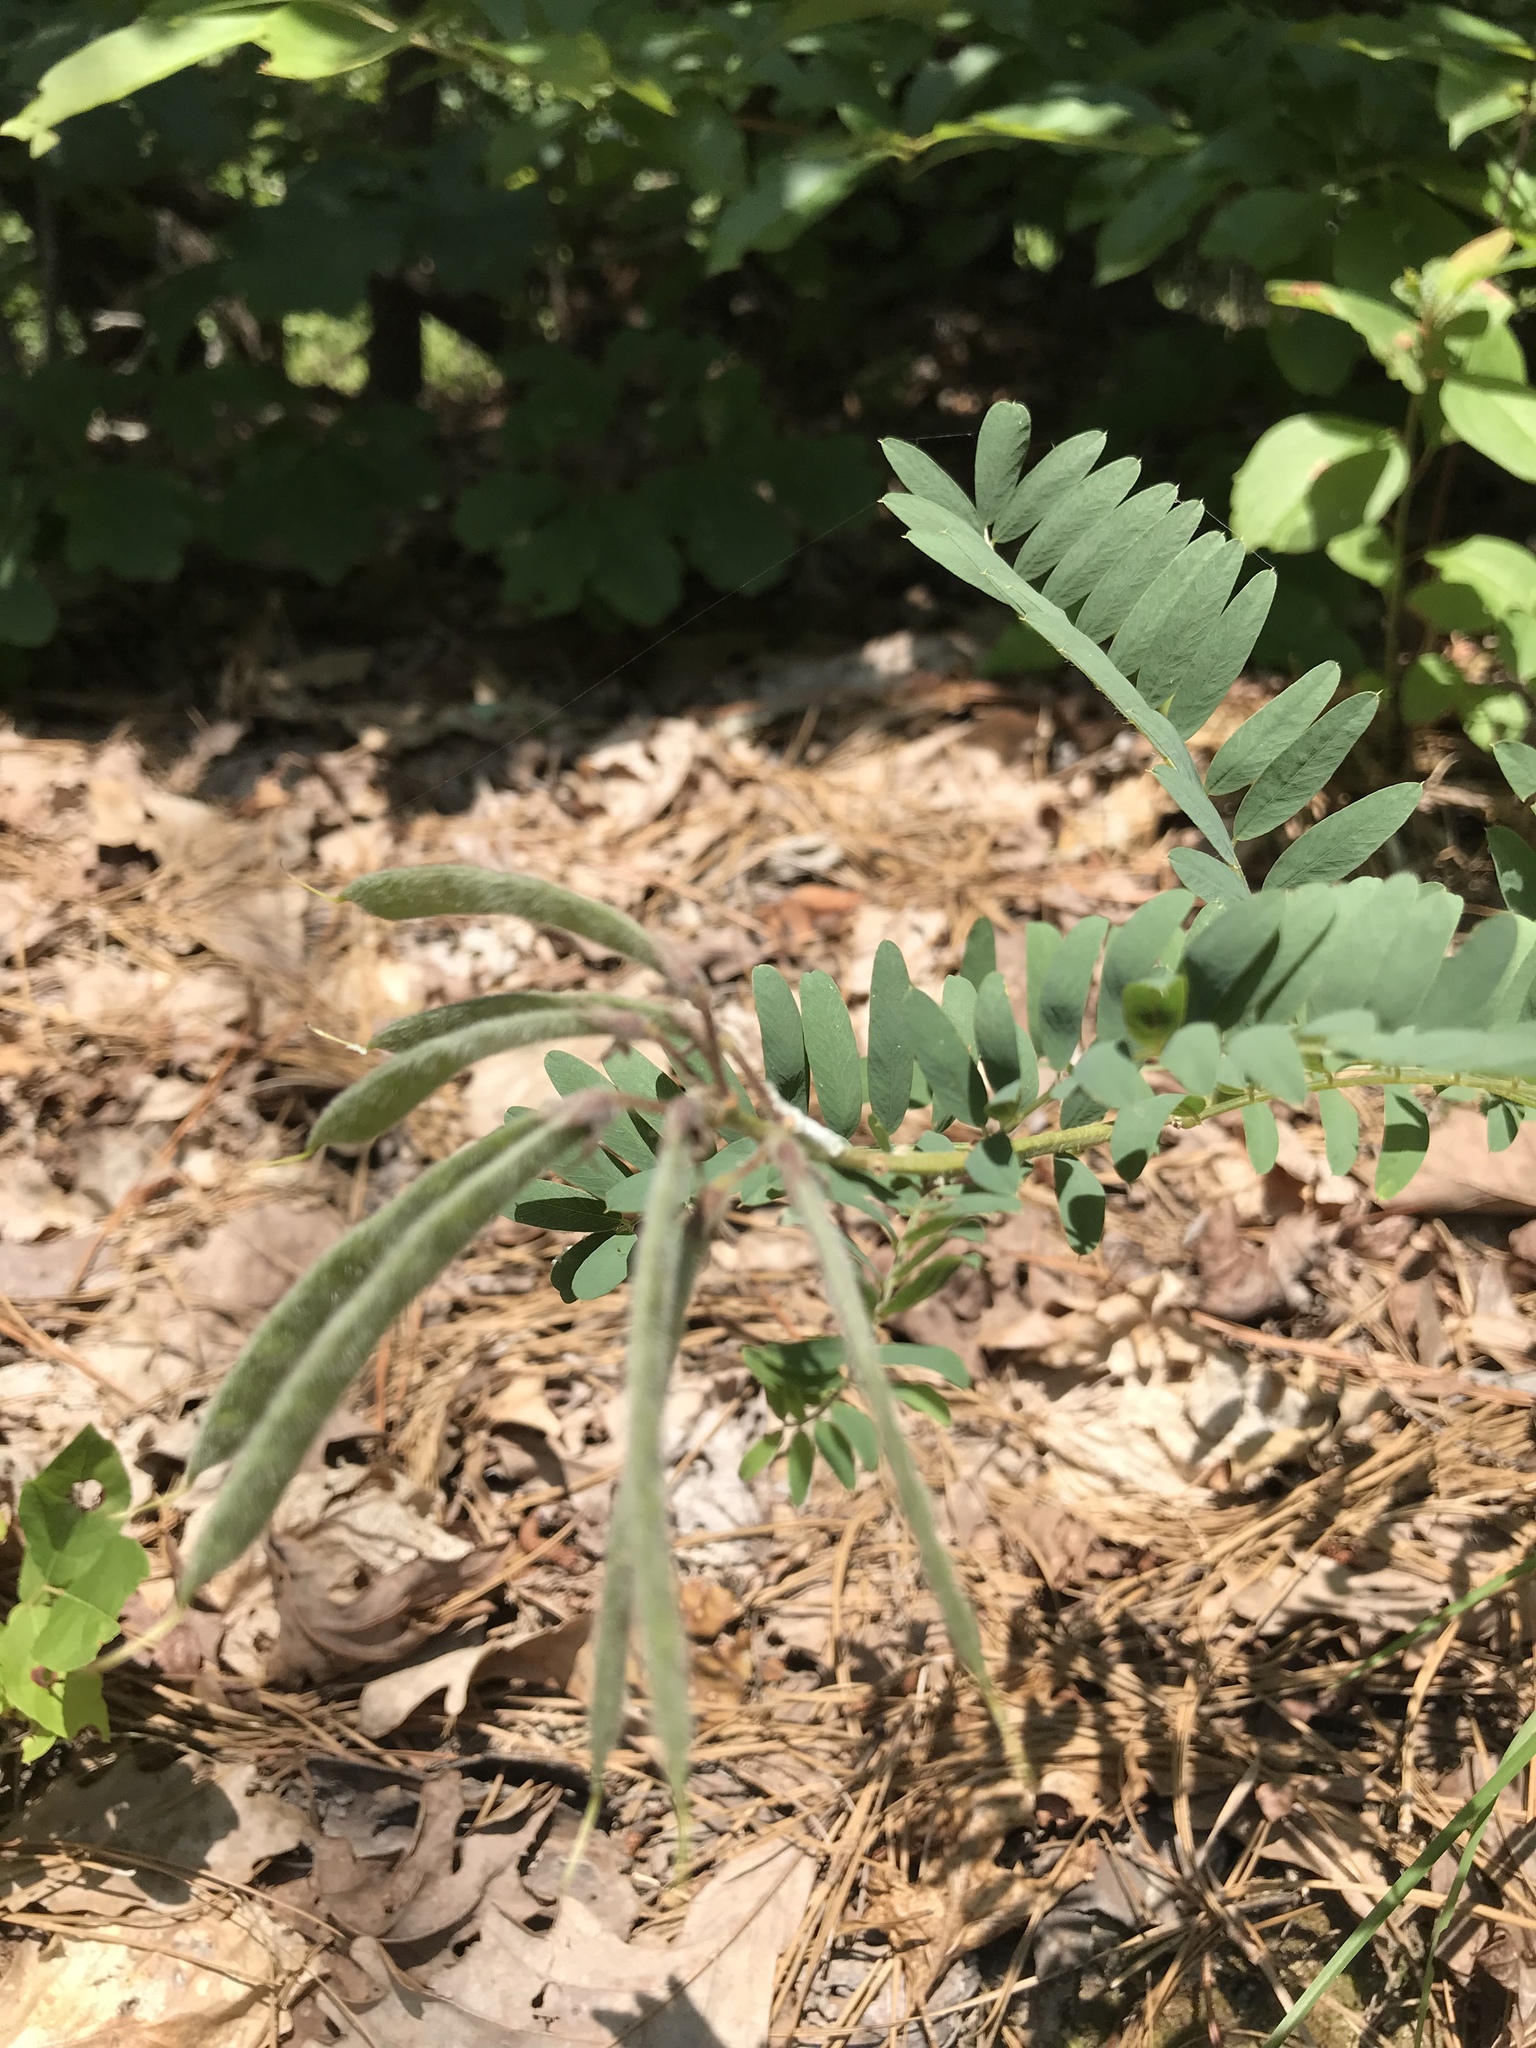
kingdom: Plantae
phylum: Tracheophyta
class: Magnoliopsida
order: Fabales
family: Fabaceae
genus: Tephrosia
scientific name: Tephrosia virginiana
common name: Rabbit-pea
